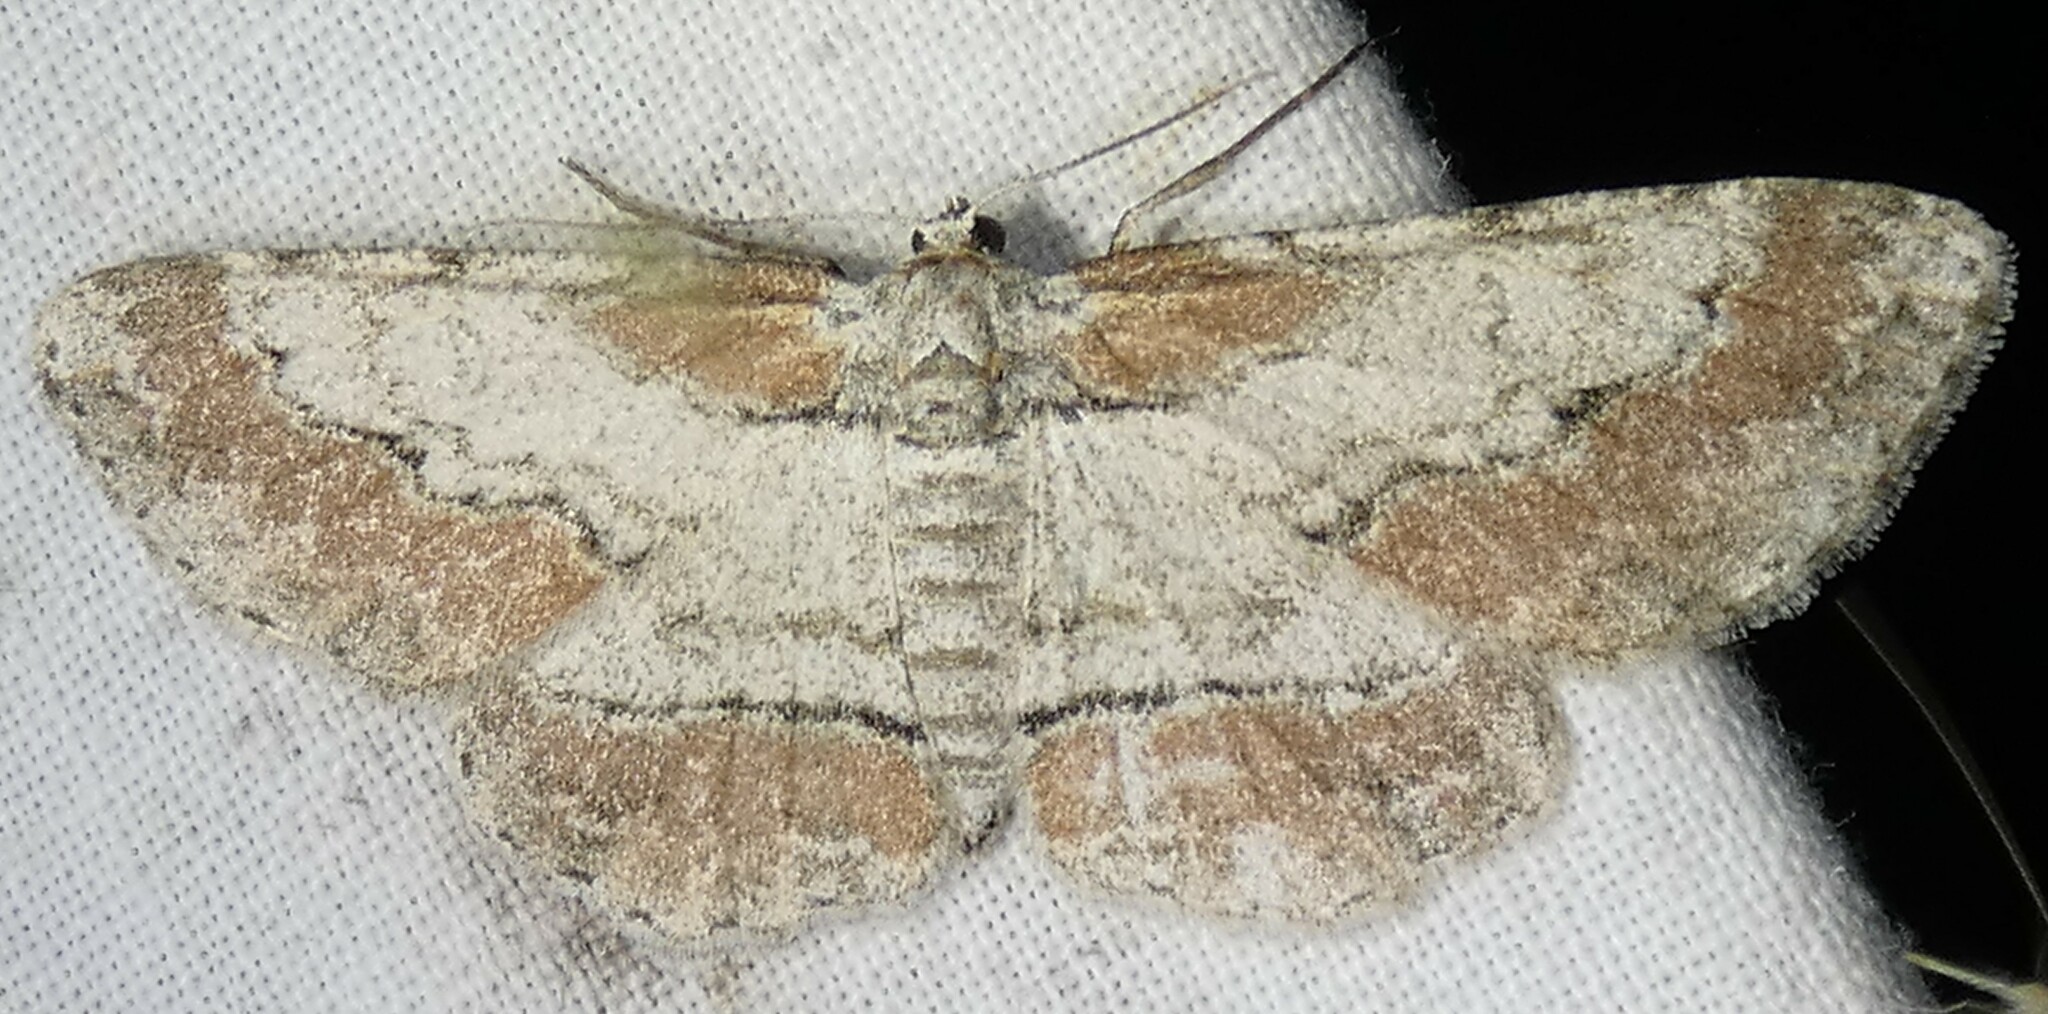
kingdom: Animalia
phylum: Arthropoda
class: Insecta
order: Lepidoptera
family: Geometridae
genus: Iridopsis
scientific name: Iridopsis pergracilis
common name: Cypress looper
